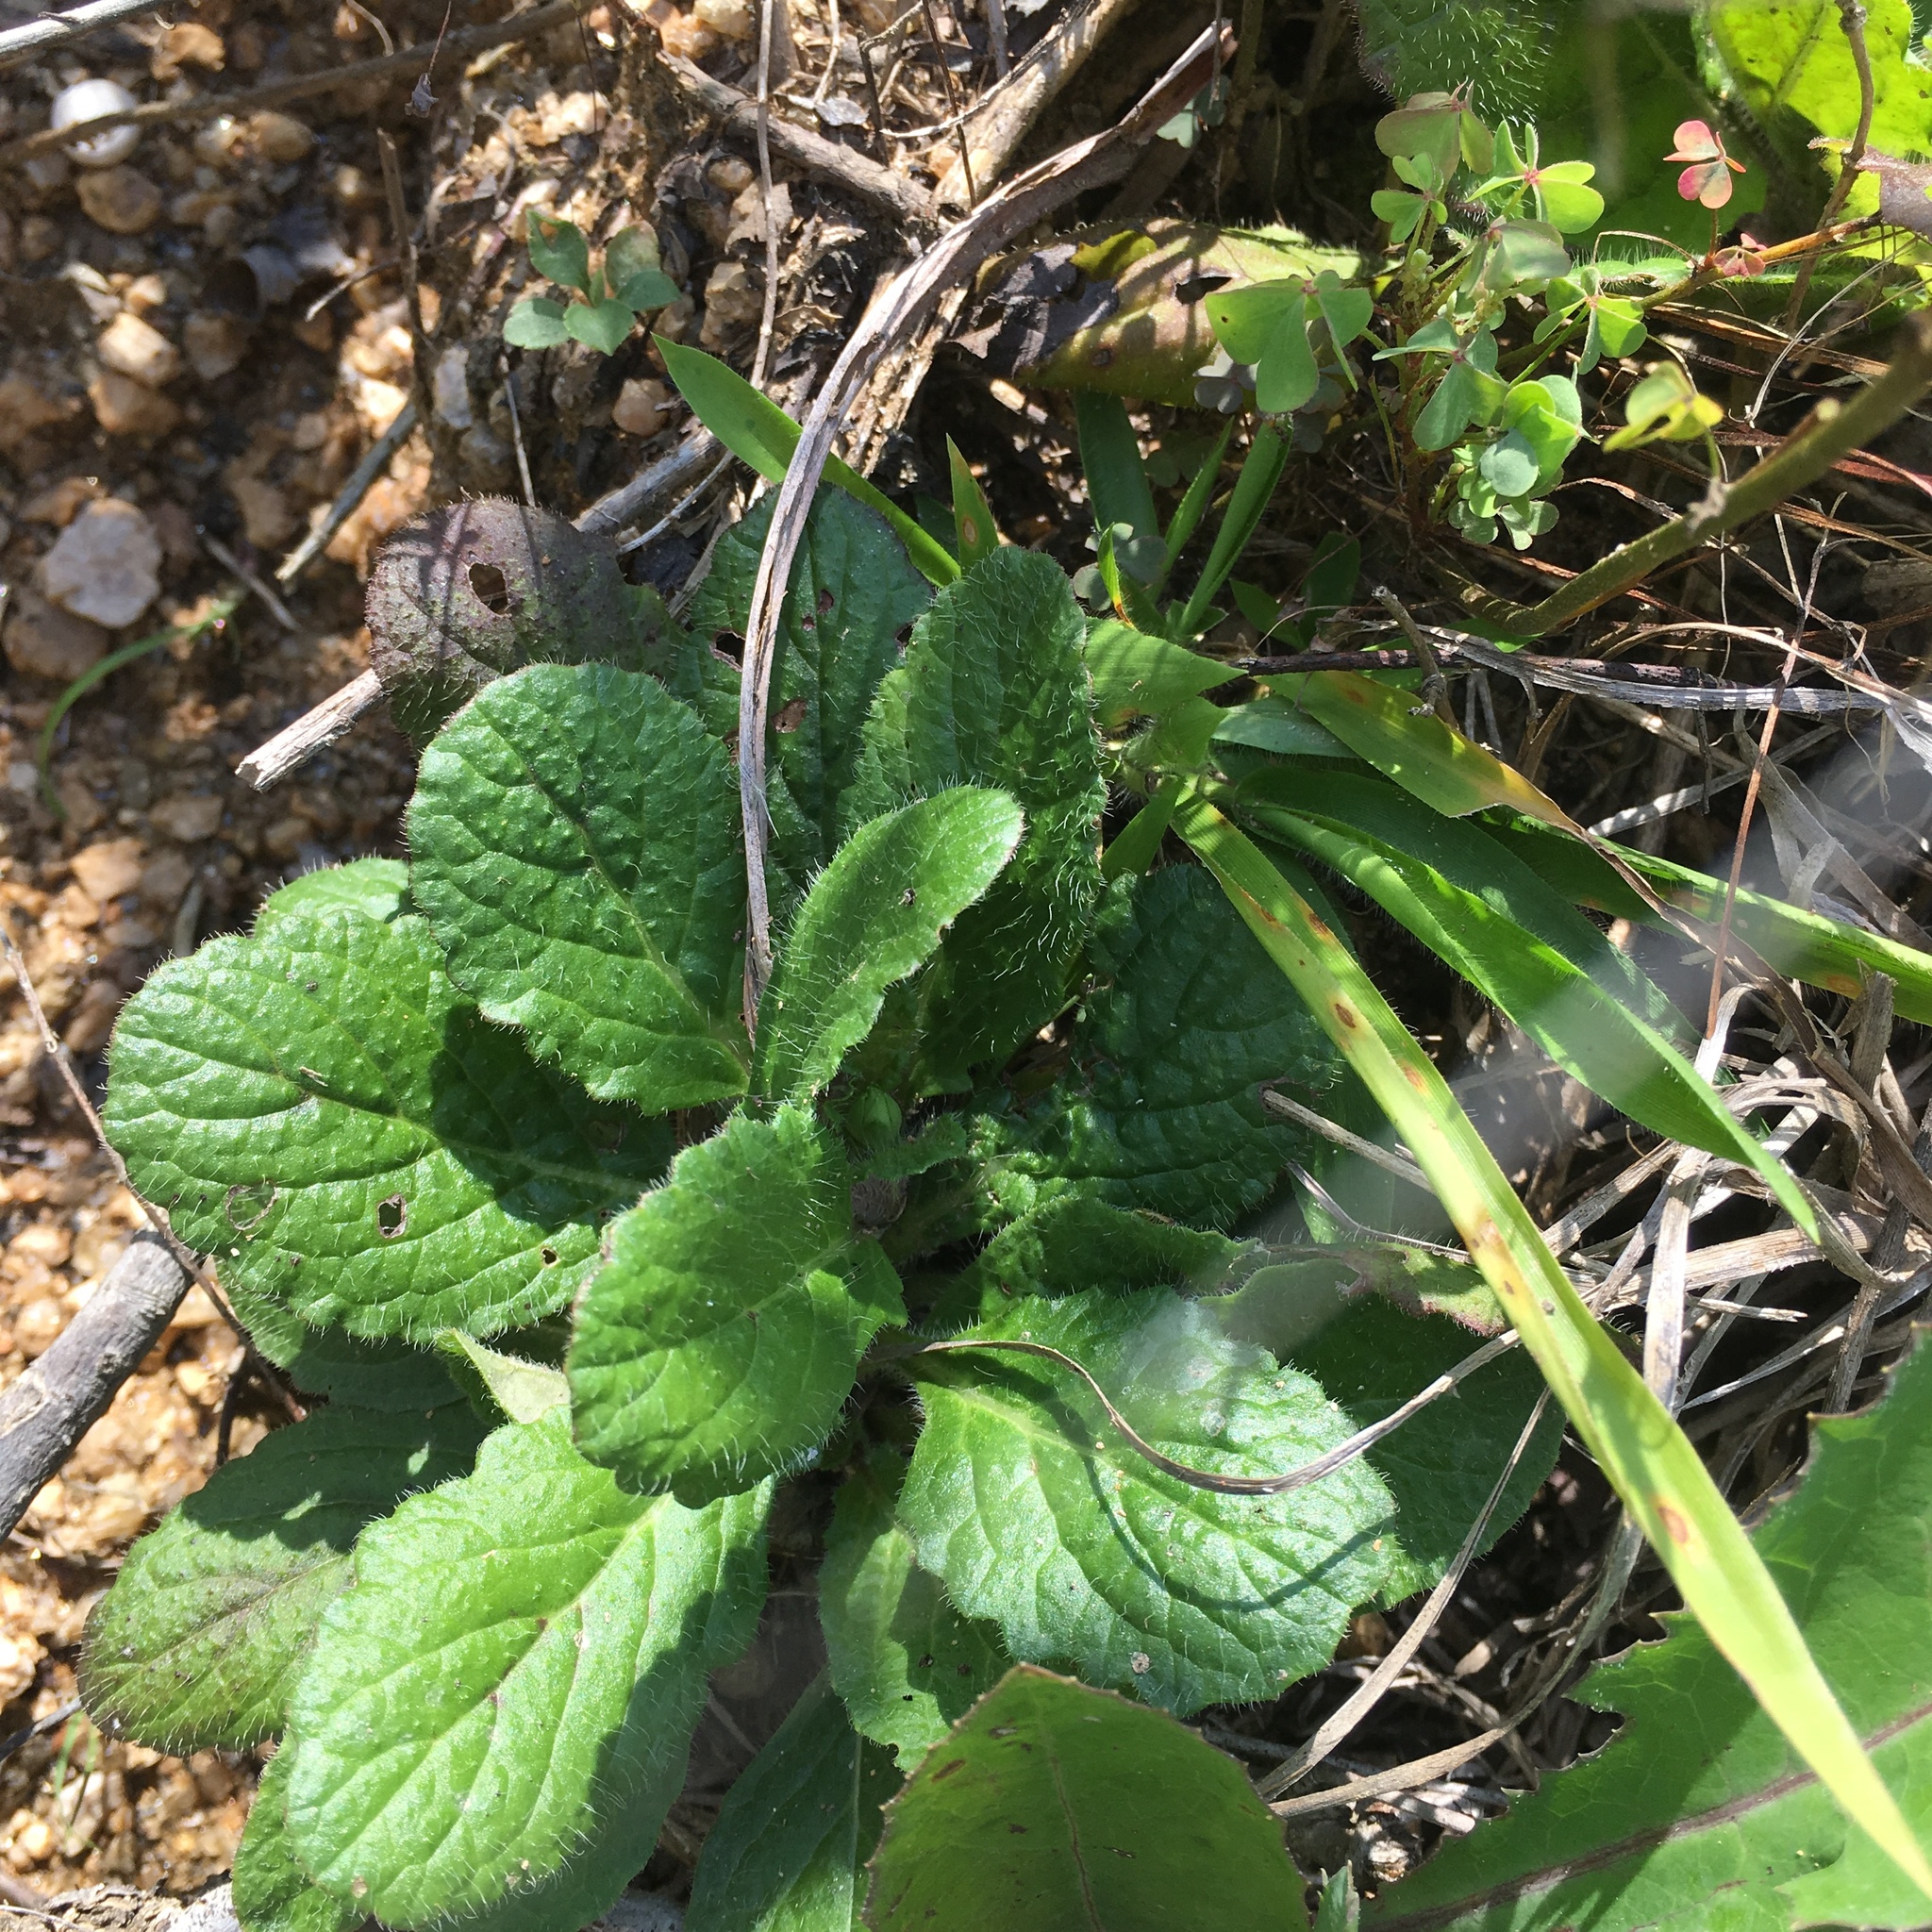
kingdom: Plantae
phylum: Tracheophyta
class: Magnoliopsida
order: Lamiales
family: Lamiaceae
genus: Salvia
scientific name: Salvia lyrata
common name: Cancerweed
